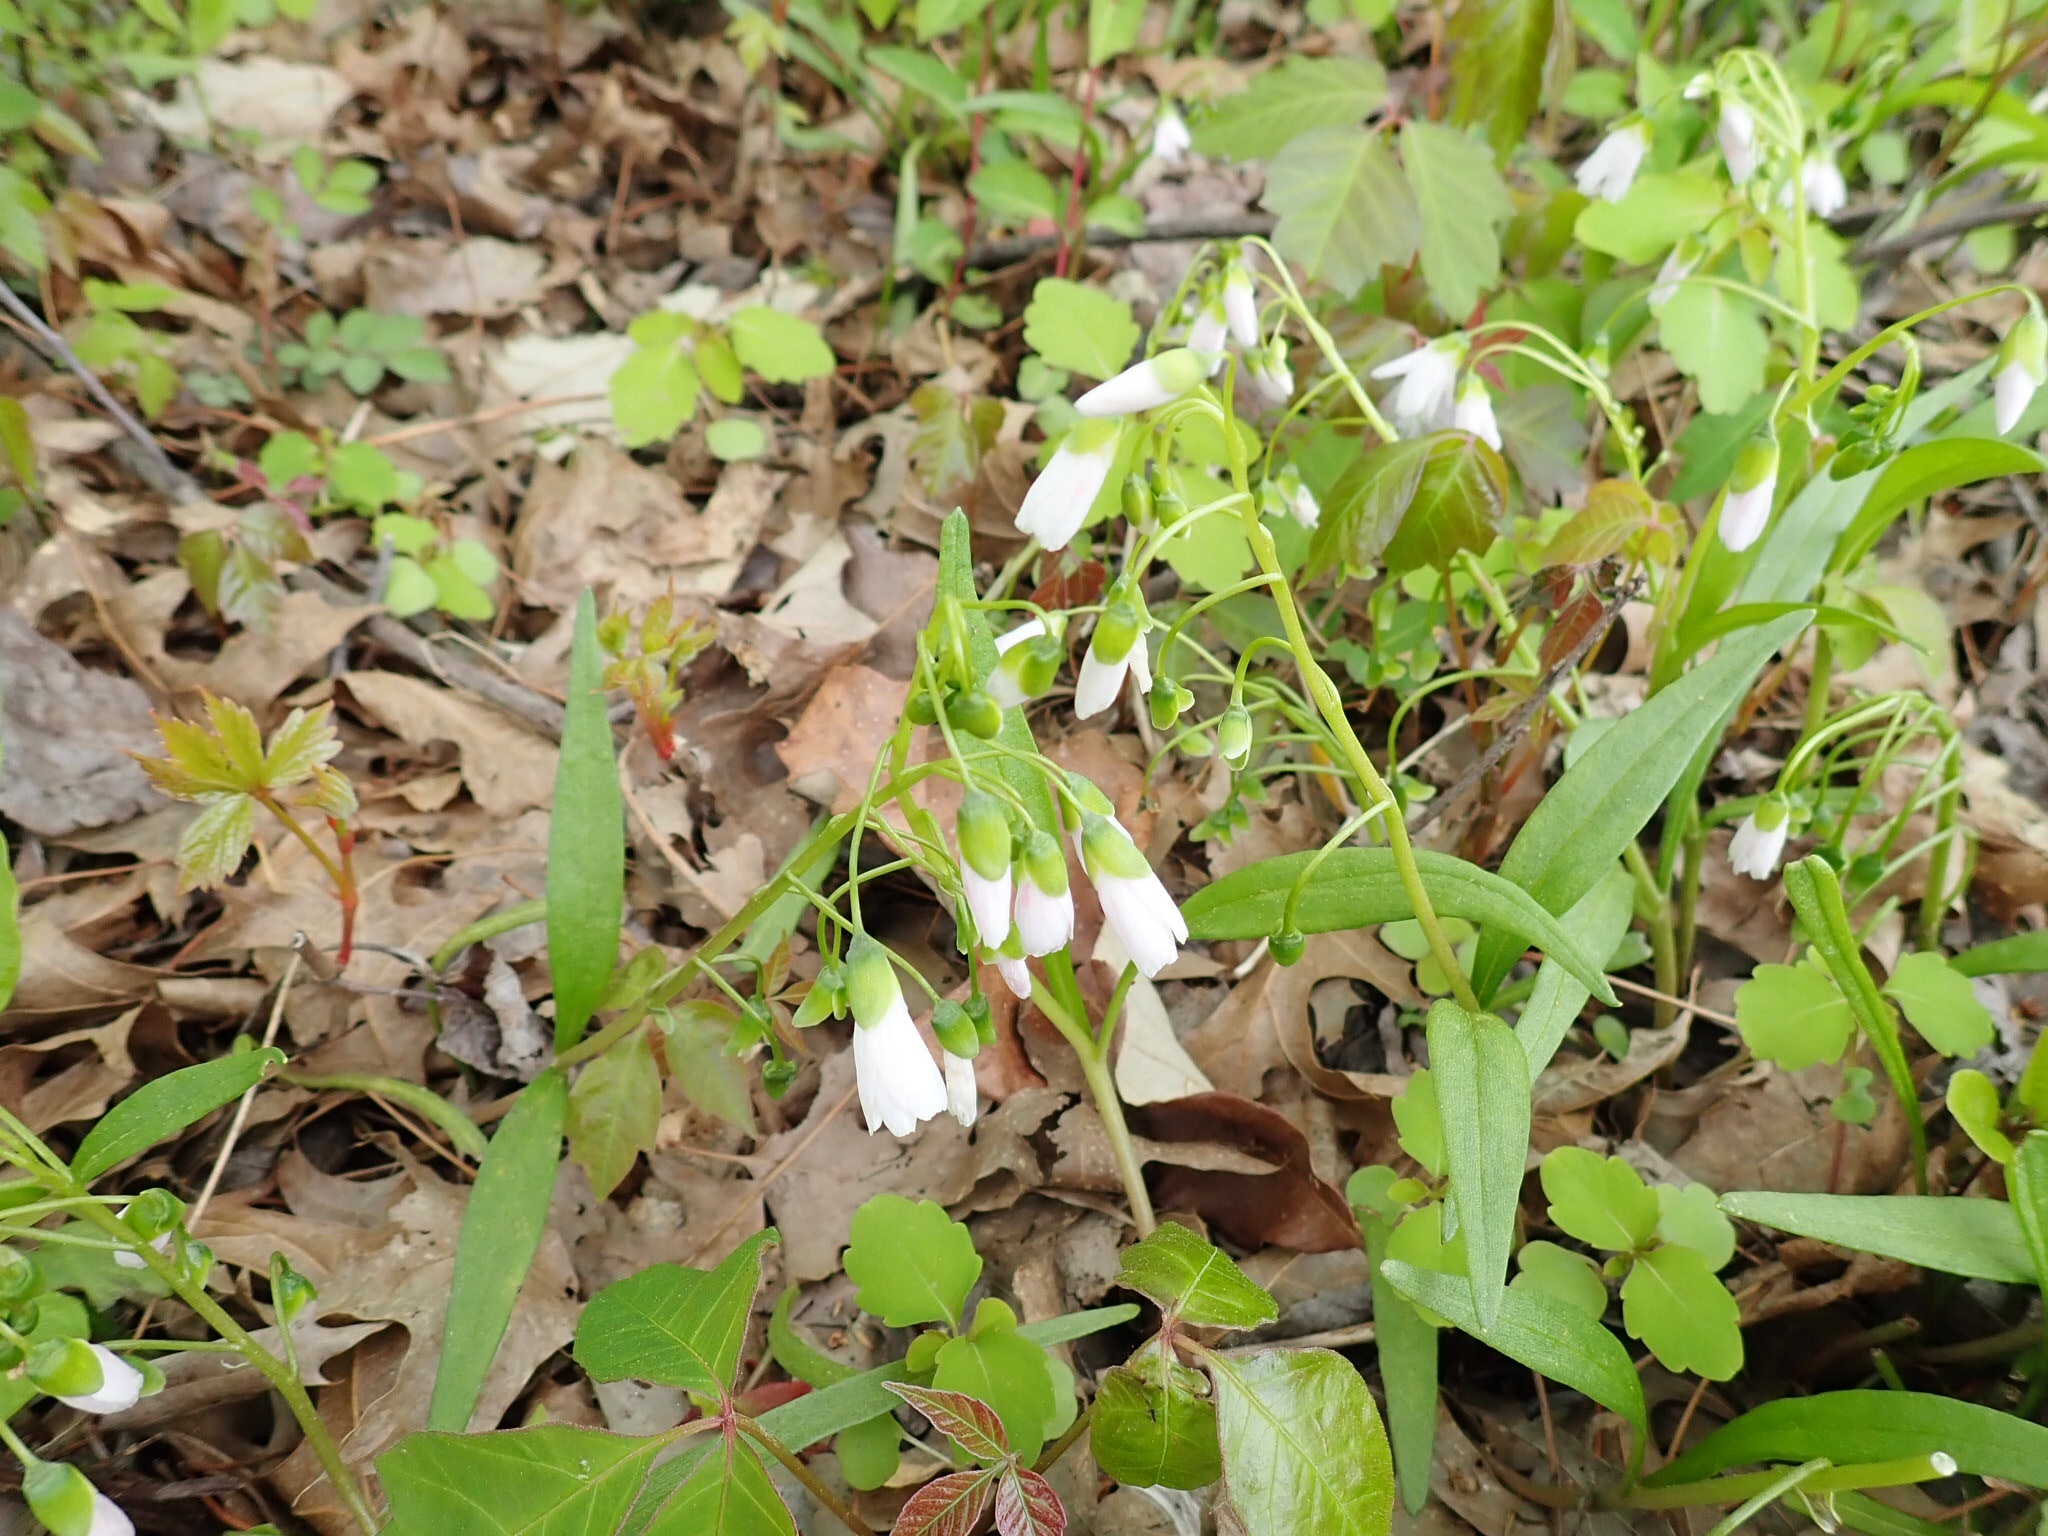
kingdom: Plantae
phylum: Tracheophyta
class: Magnoliopsida
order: Caryophyllales
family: Montiaceae
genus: Claytonia
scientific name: Claytonia virginica
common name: Virginia springbeauty
